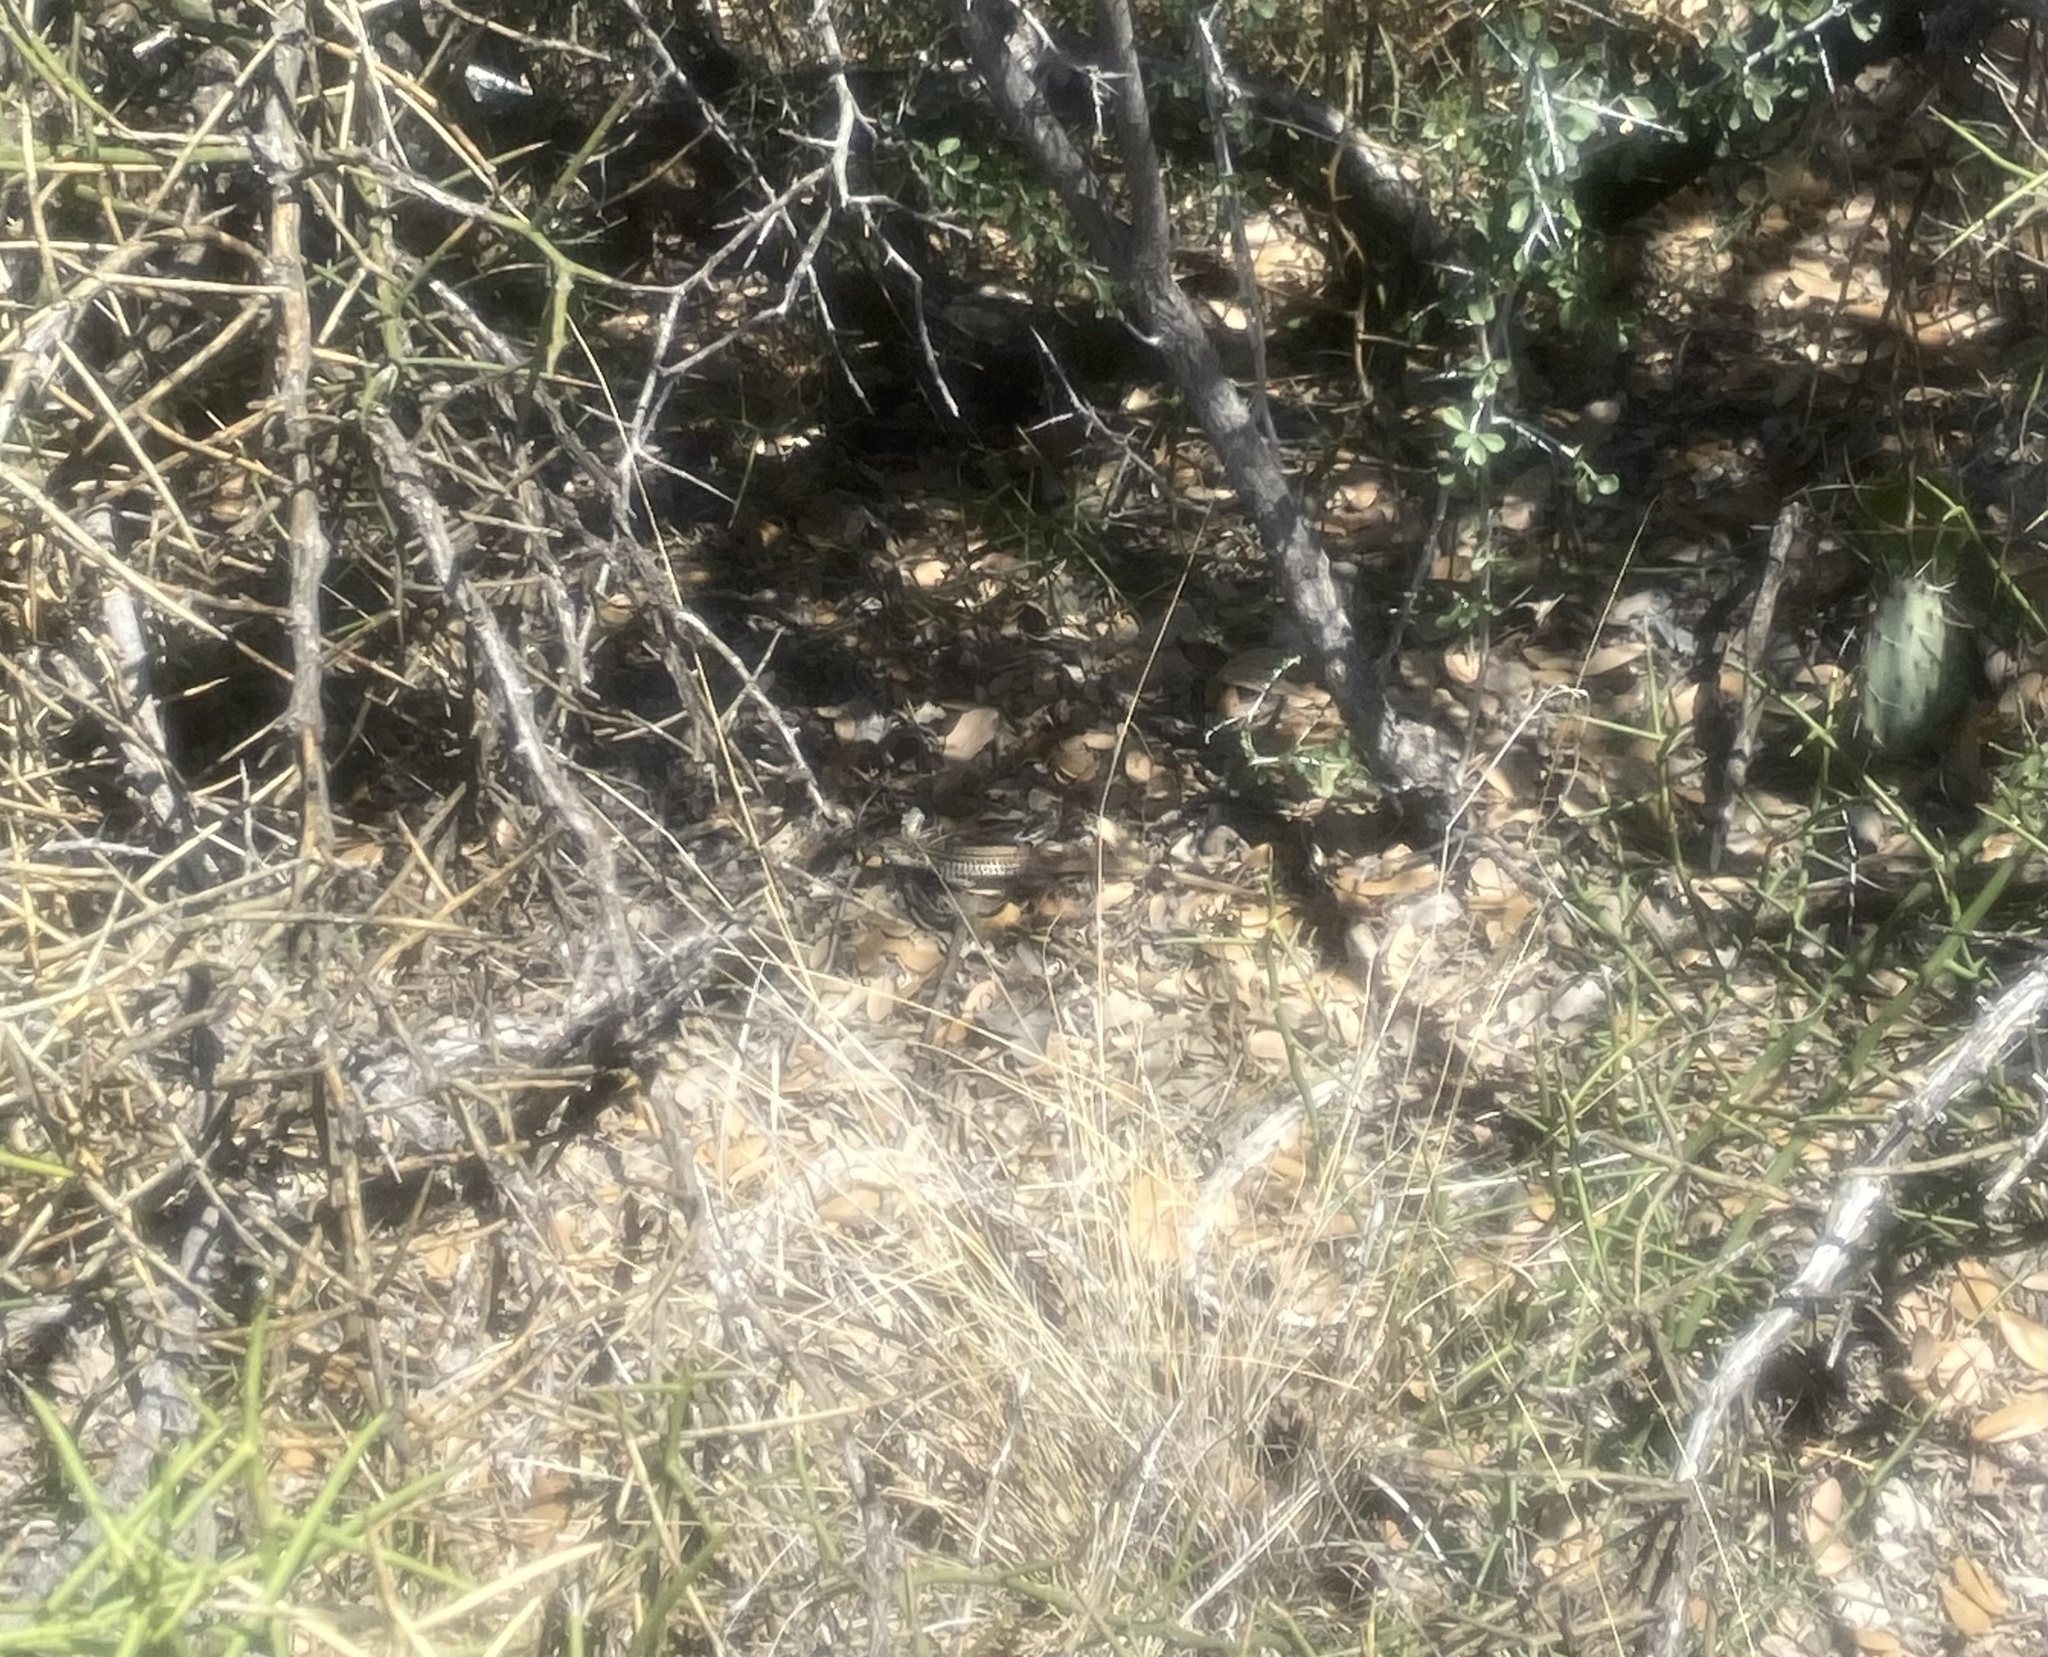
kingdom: Animalia
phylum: Chordata
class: Squamata
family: Teiidae
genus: Aspidoscelis
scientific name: Aspidoscelis gularis
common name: Eastern spotted whiptail
